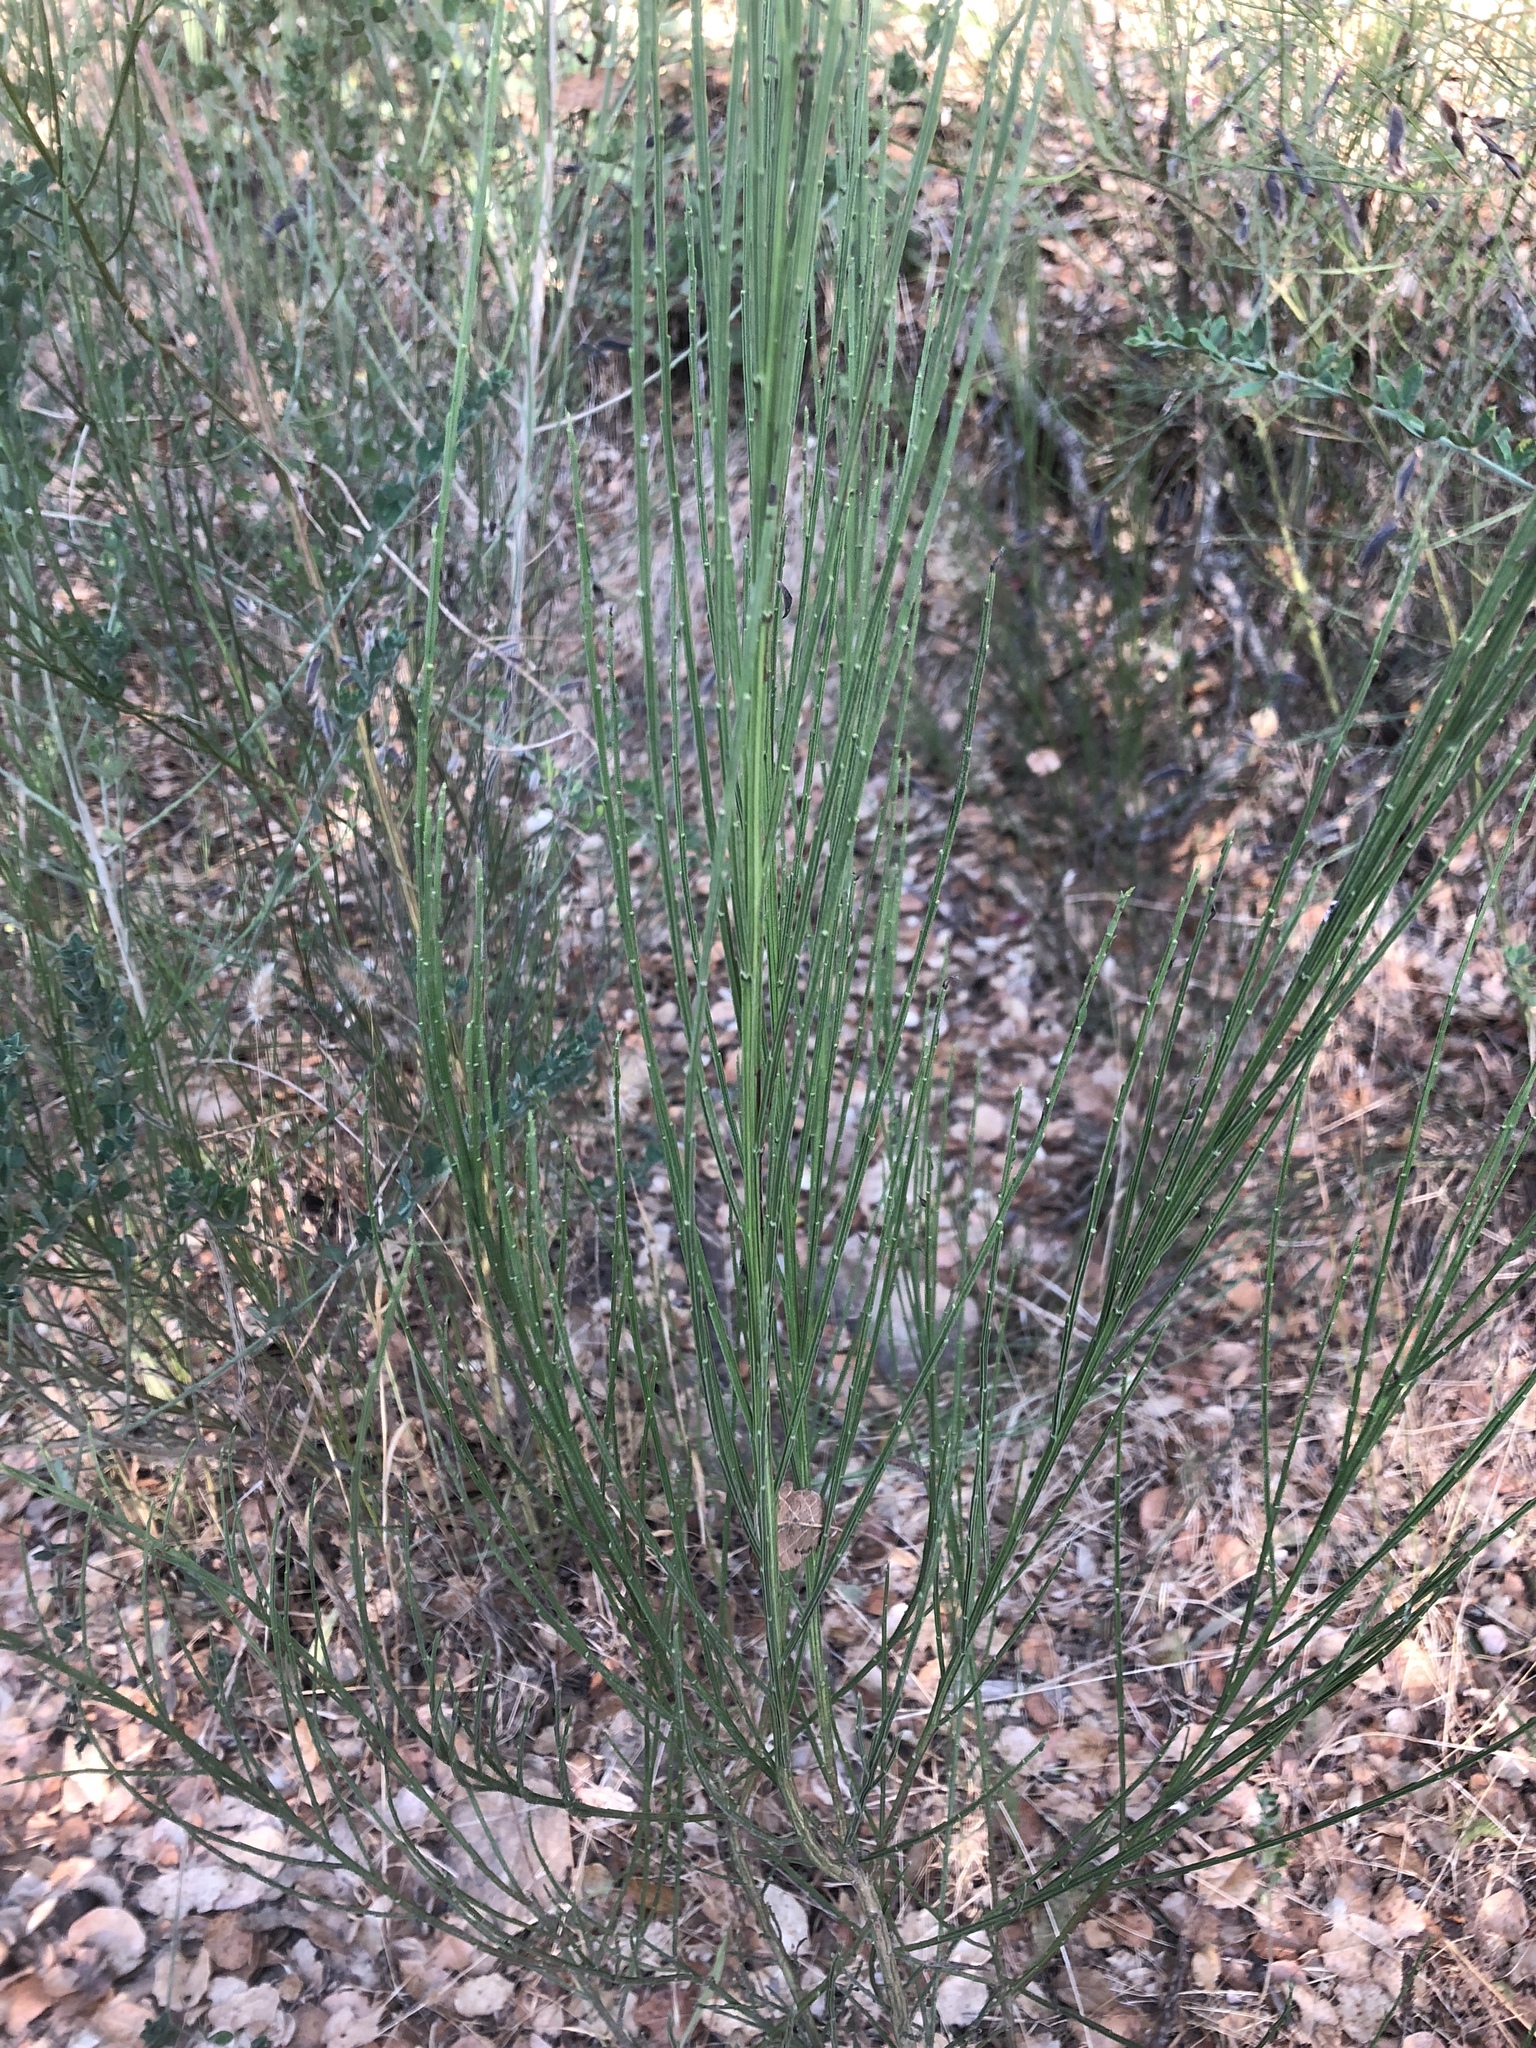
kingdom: Plantae
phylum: Tracheophyta
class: Magnoliopsida
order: Fabales
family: Fabaceae
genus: Cytisus
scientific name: Cytisus scoparius
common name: Scotch broom
